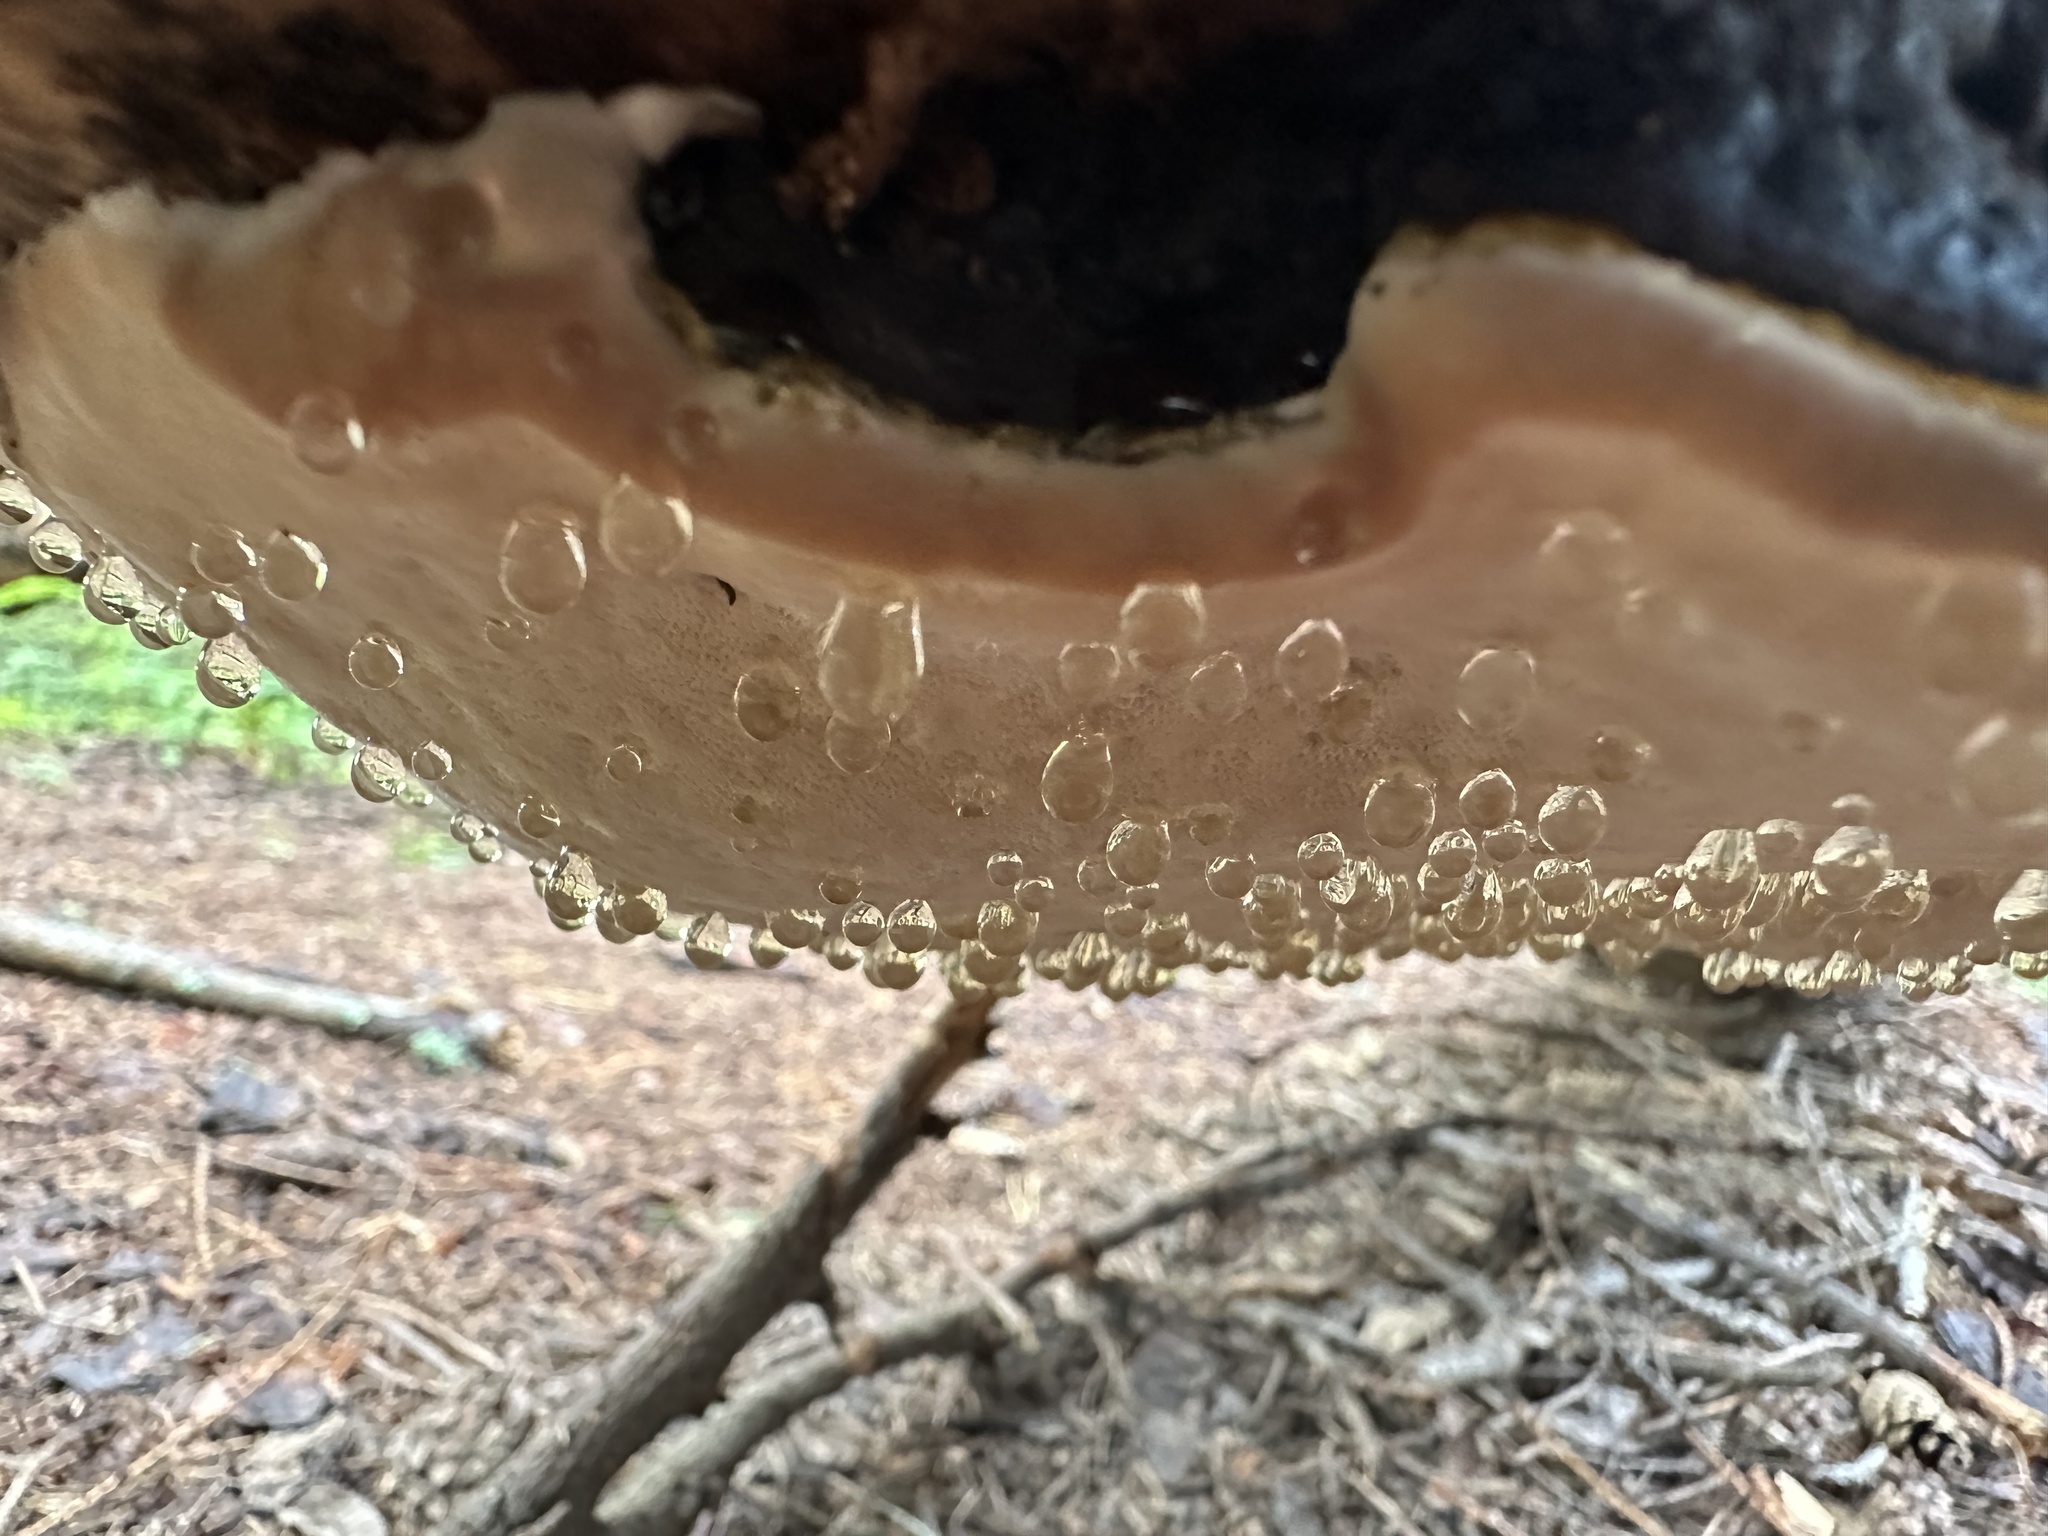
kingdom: Fungi
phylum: Basidiomycota
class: Agaricomycetes
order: Polyporales
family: Fomitopsidaceae
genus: Fomitopsis
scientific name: Fomitopsis pinicola
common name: Red-belted bracket
